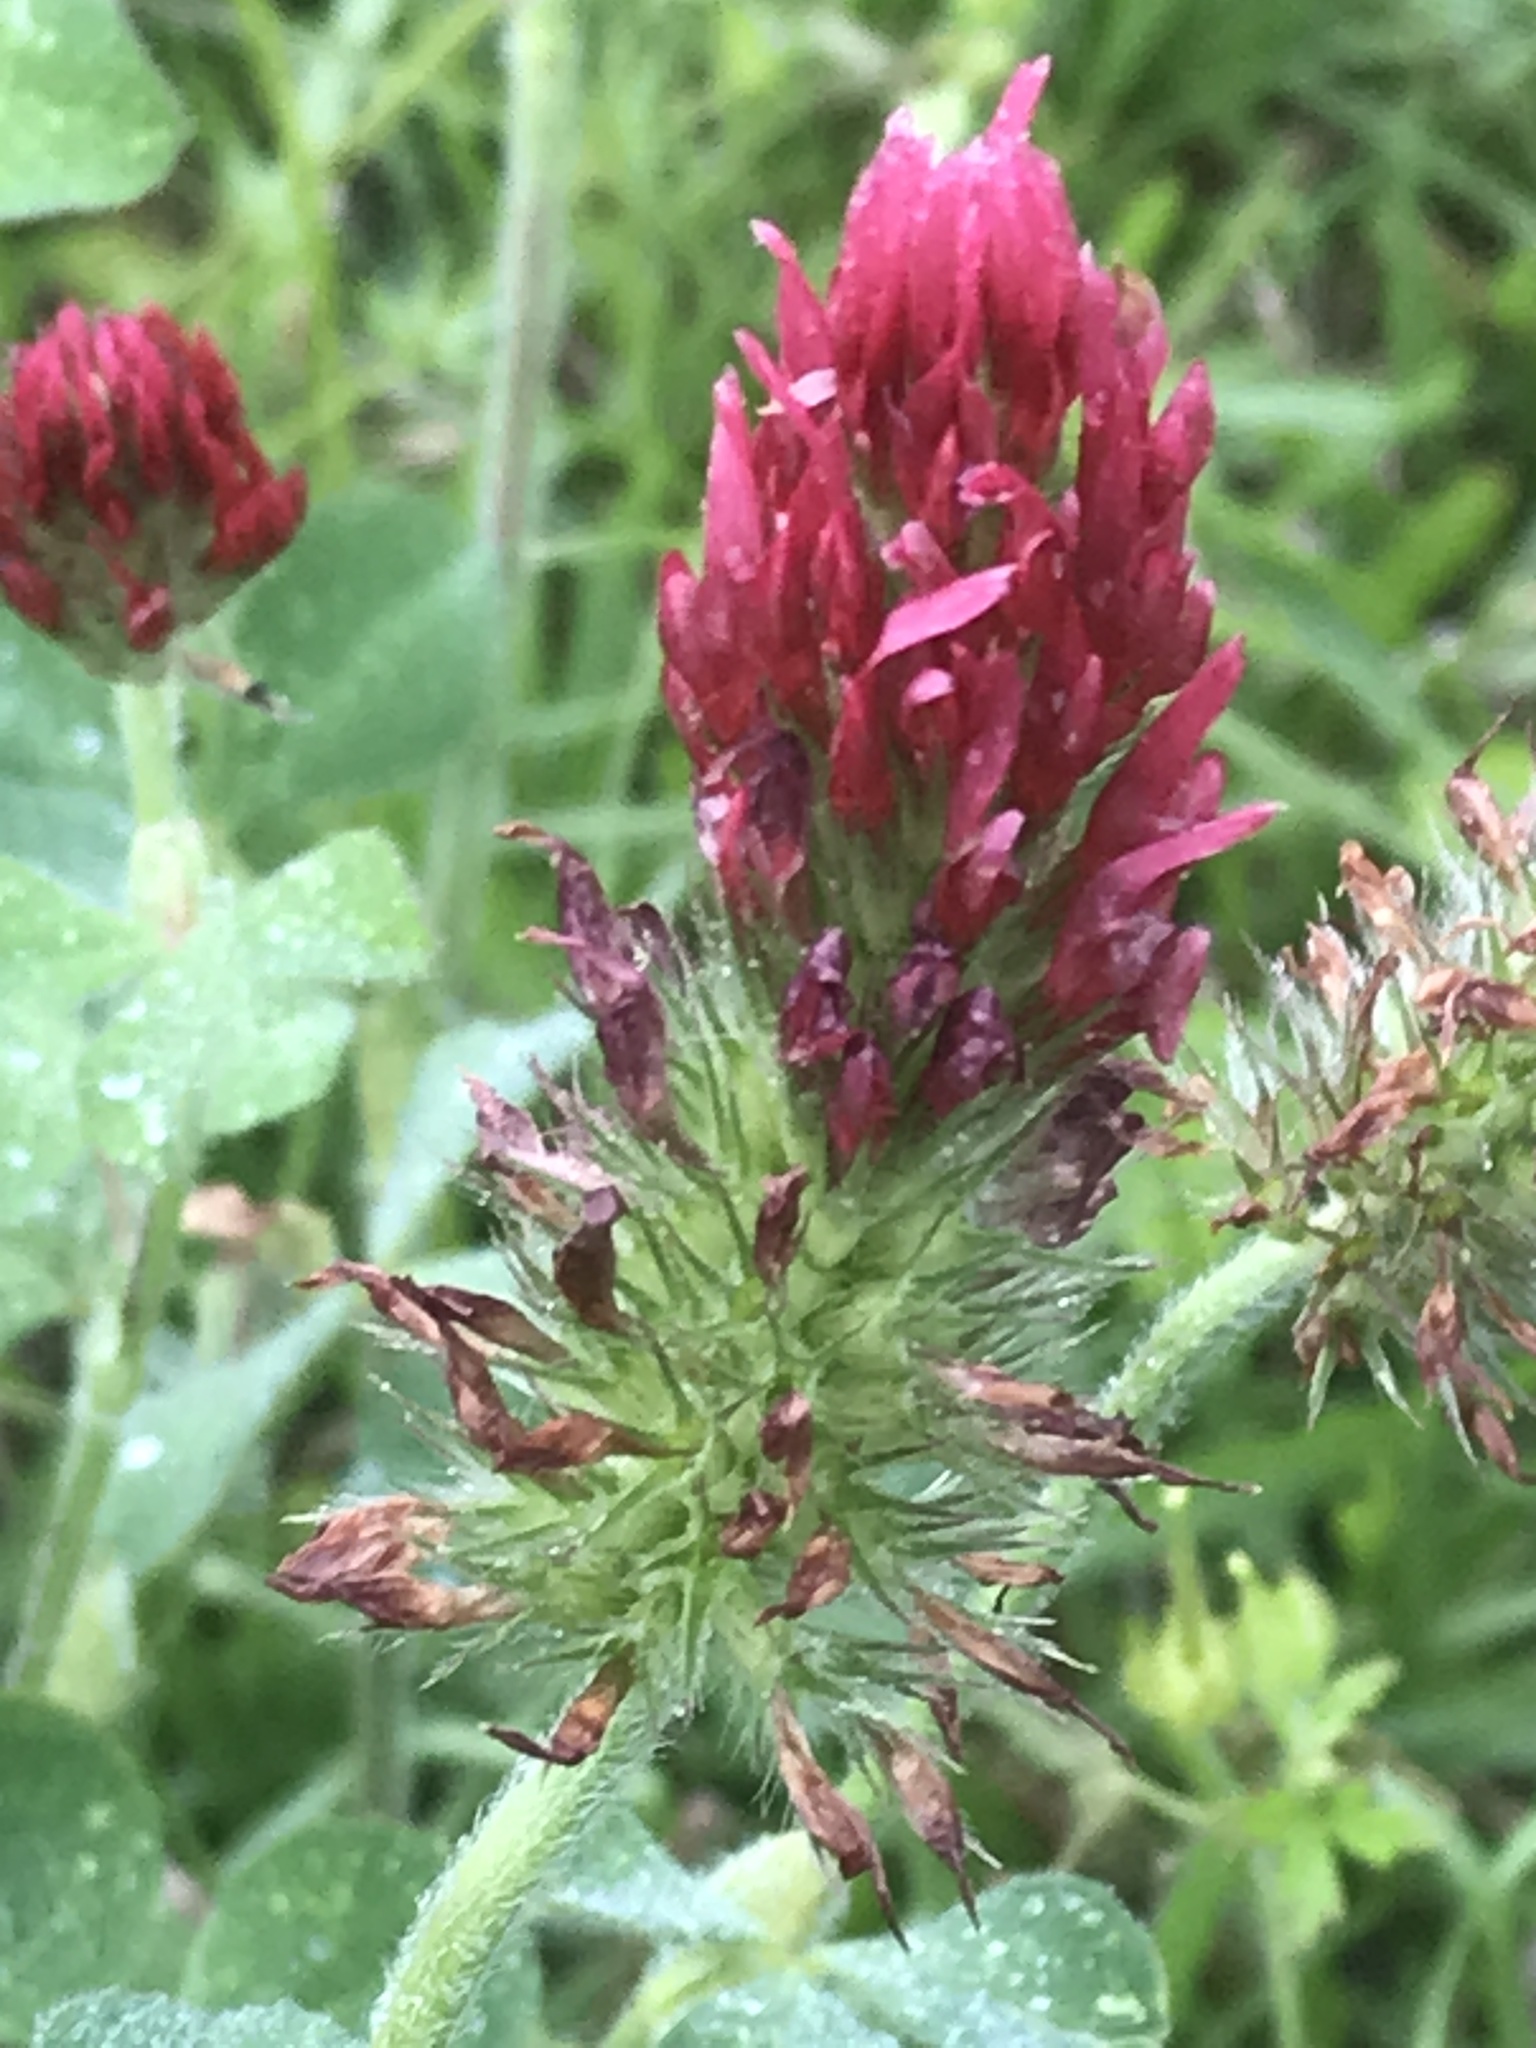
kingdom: Plantae
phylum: Tracheophyta
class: Magnoliopsida
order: Fabales
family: Fabaceae
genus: Trifolium
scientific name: Trifolium incarnatum
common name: Crimson clover
